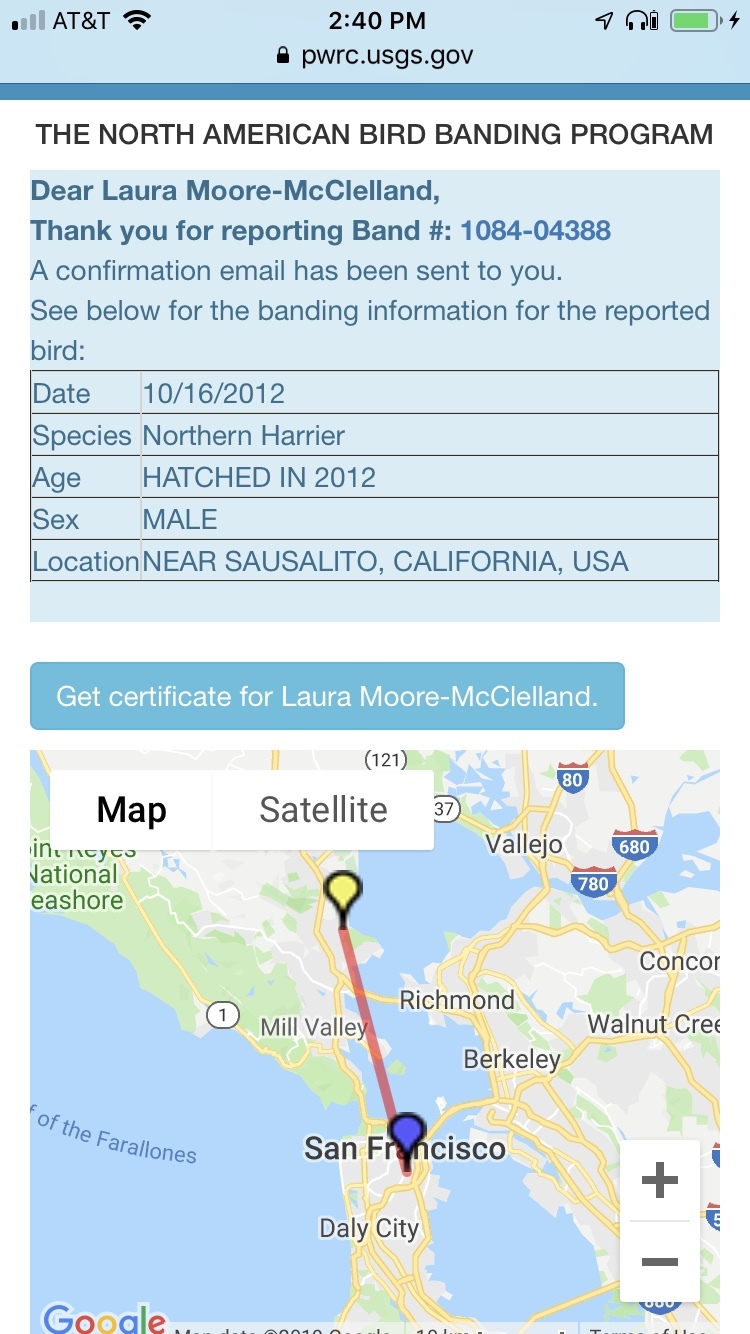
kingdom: Animalia
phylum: Chordata
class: Aves
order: Accipitriformes
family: Accipitridae
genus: Circus
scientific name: Circus cyaneus
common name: Hen harrier
